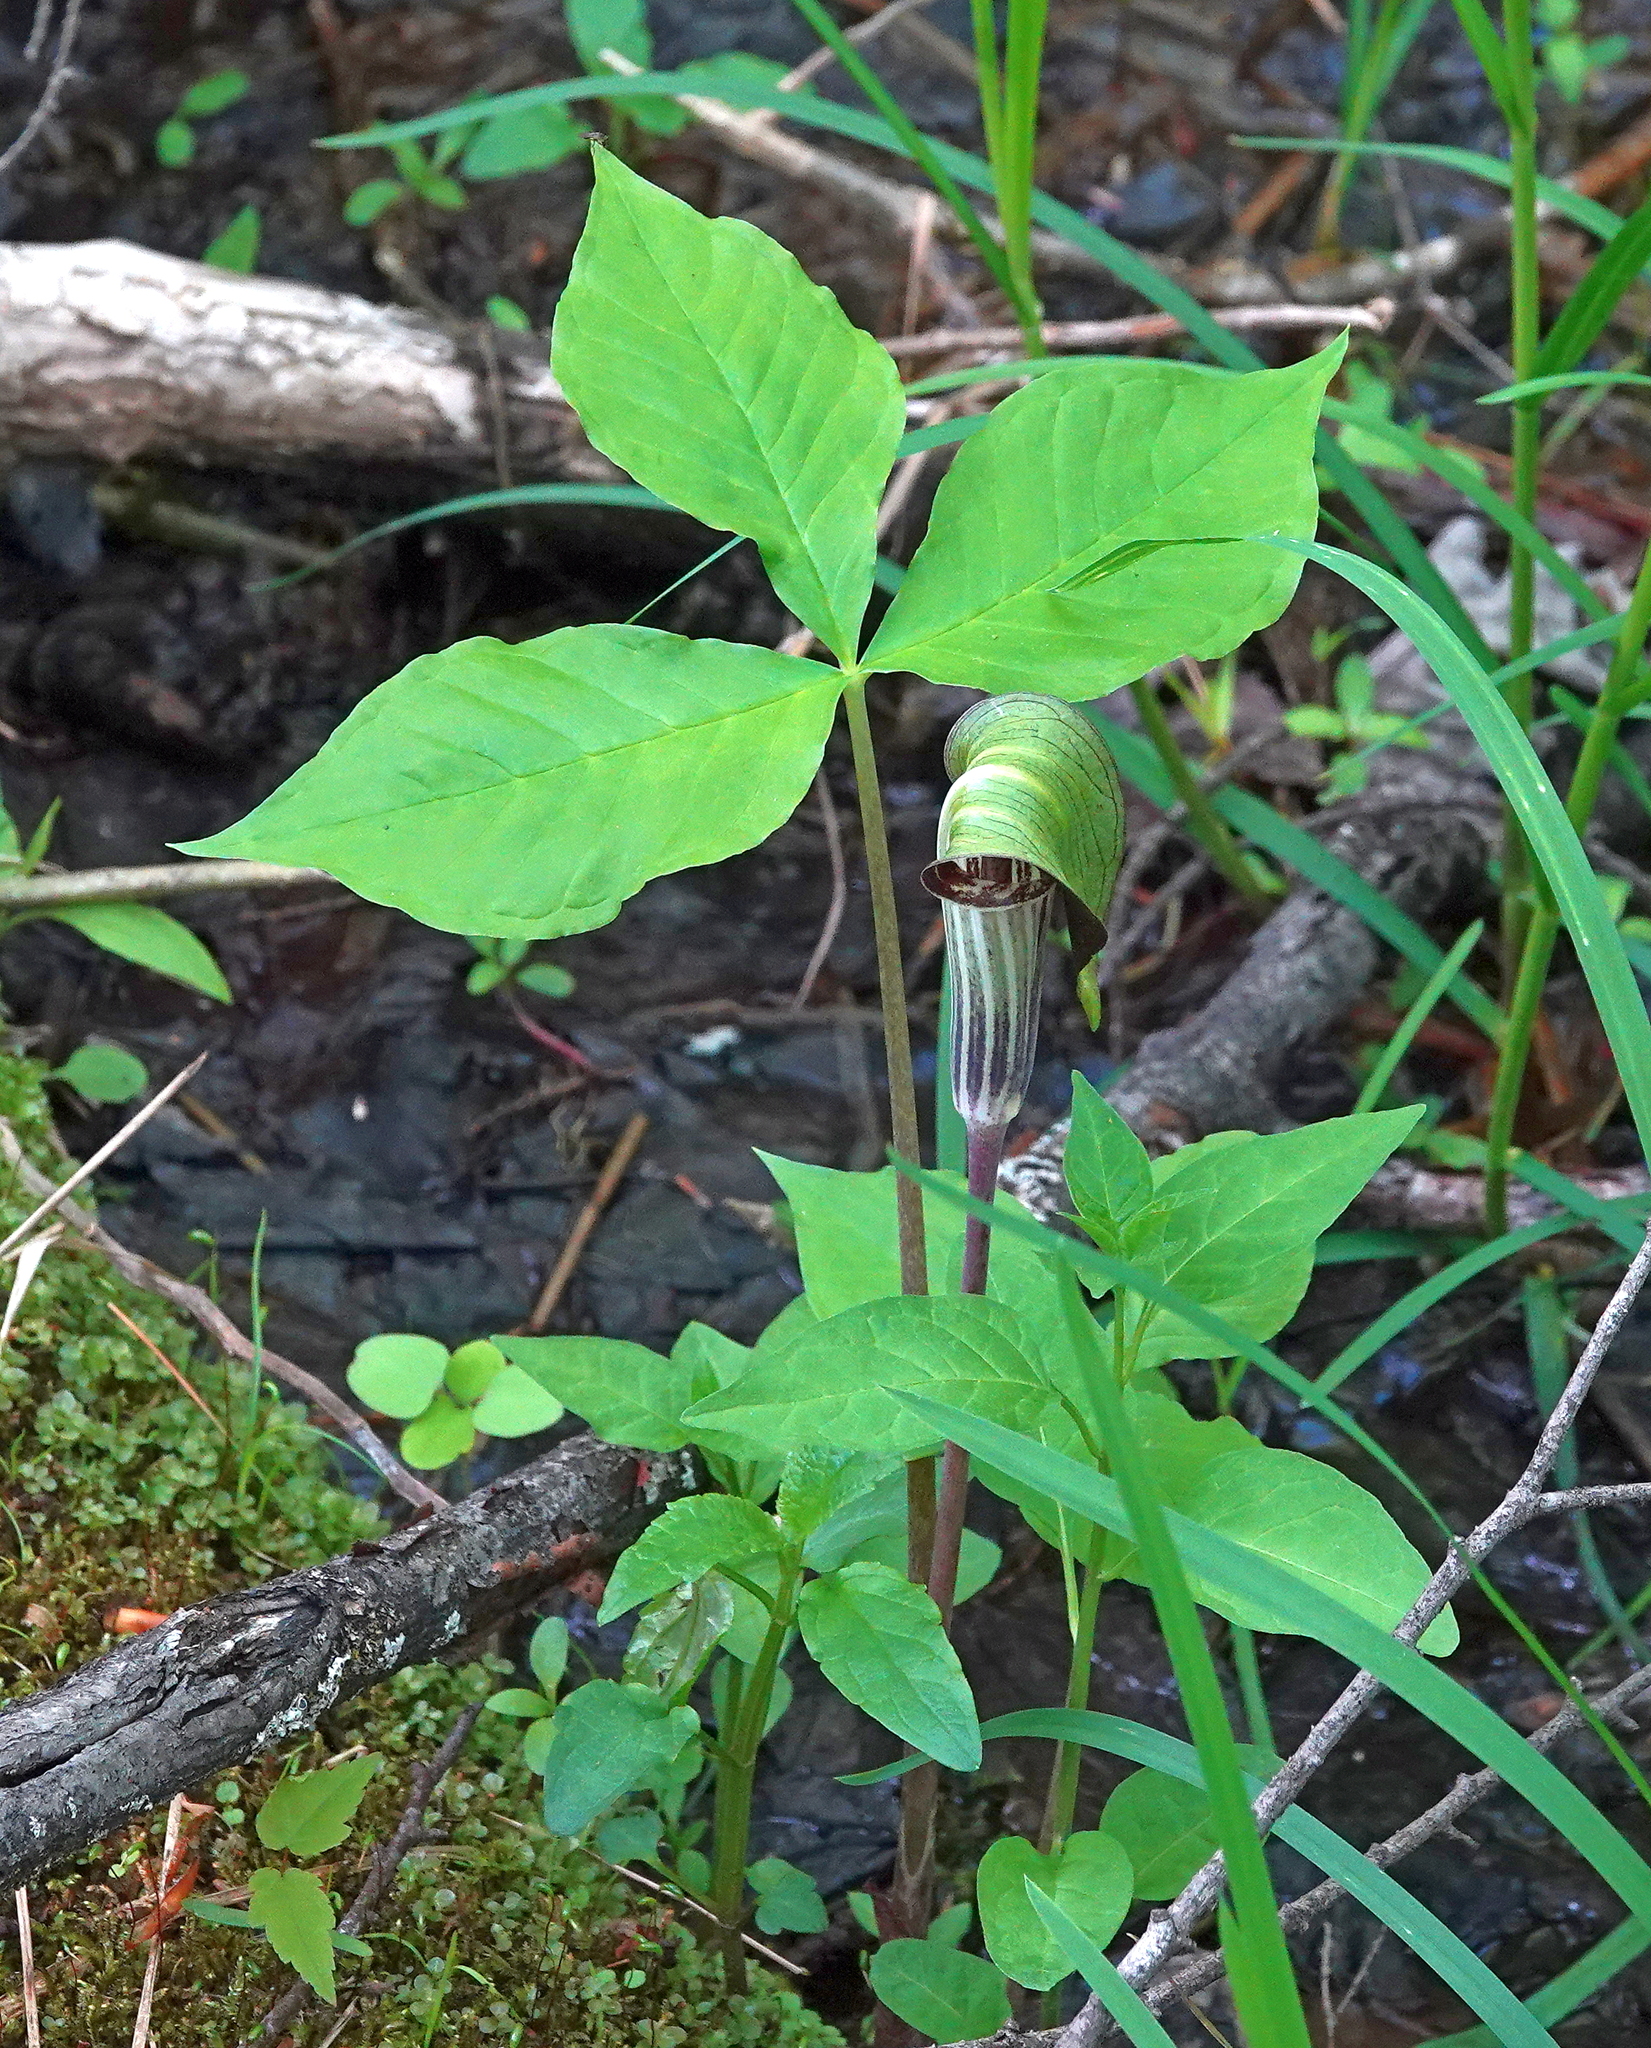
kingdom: Plantae
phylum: Tracheophyta
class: Liliopsida
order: Alismatales
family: Araceae
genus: Arisaema
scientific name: Arisaema triphyllum
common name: Jack-in-the-pulpit
